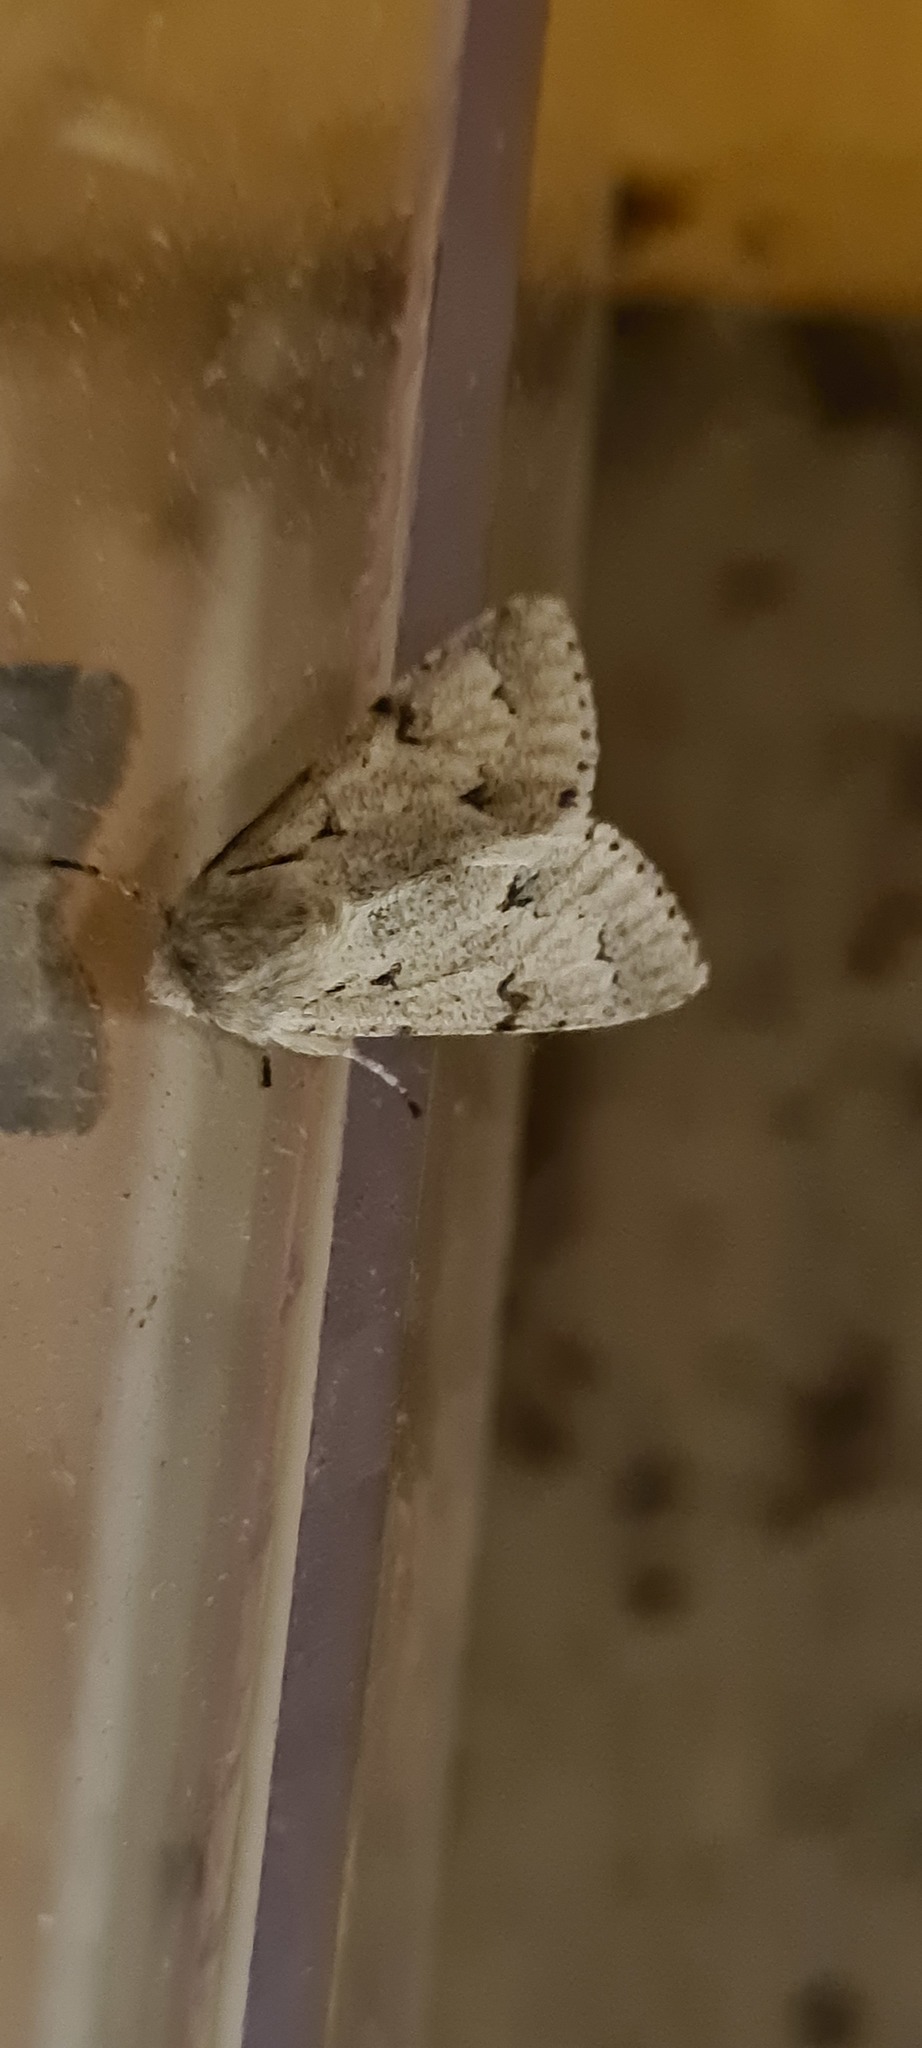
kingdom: Animalia
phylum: Arthropoda
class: Insecta
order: Lepidoptera
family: Noctuidae
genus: Acronicta
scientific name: Acronicta leporina
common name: Miller
